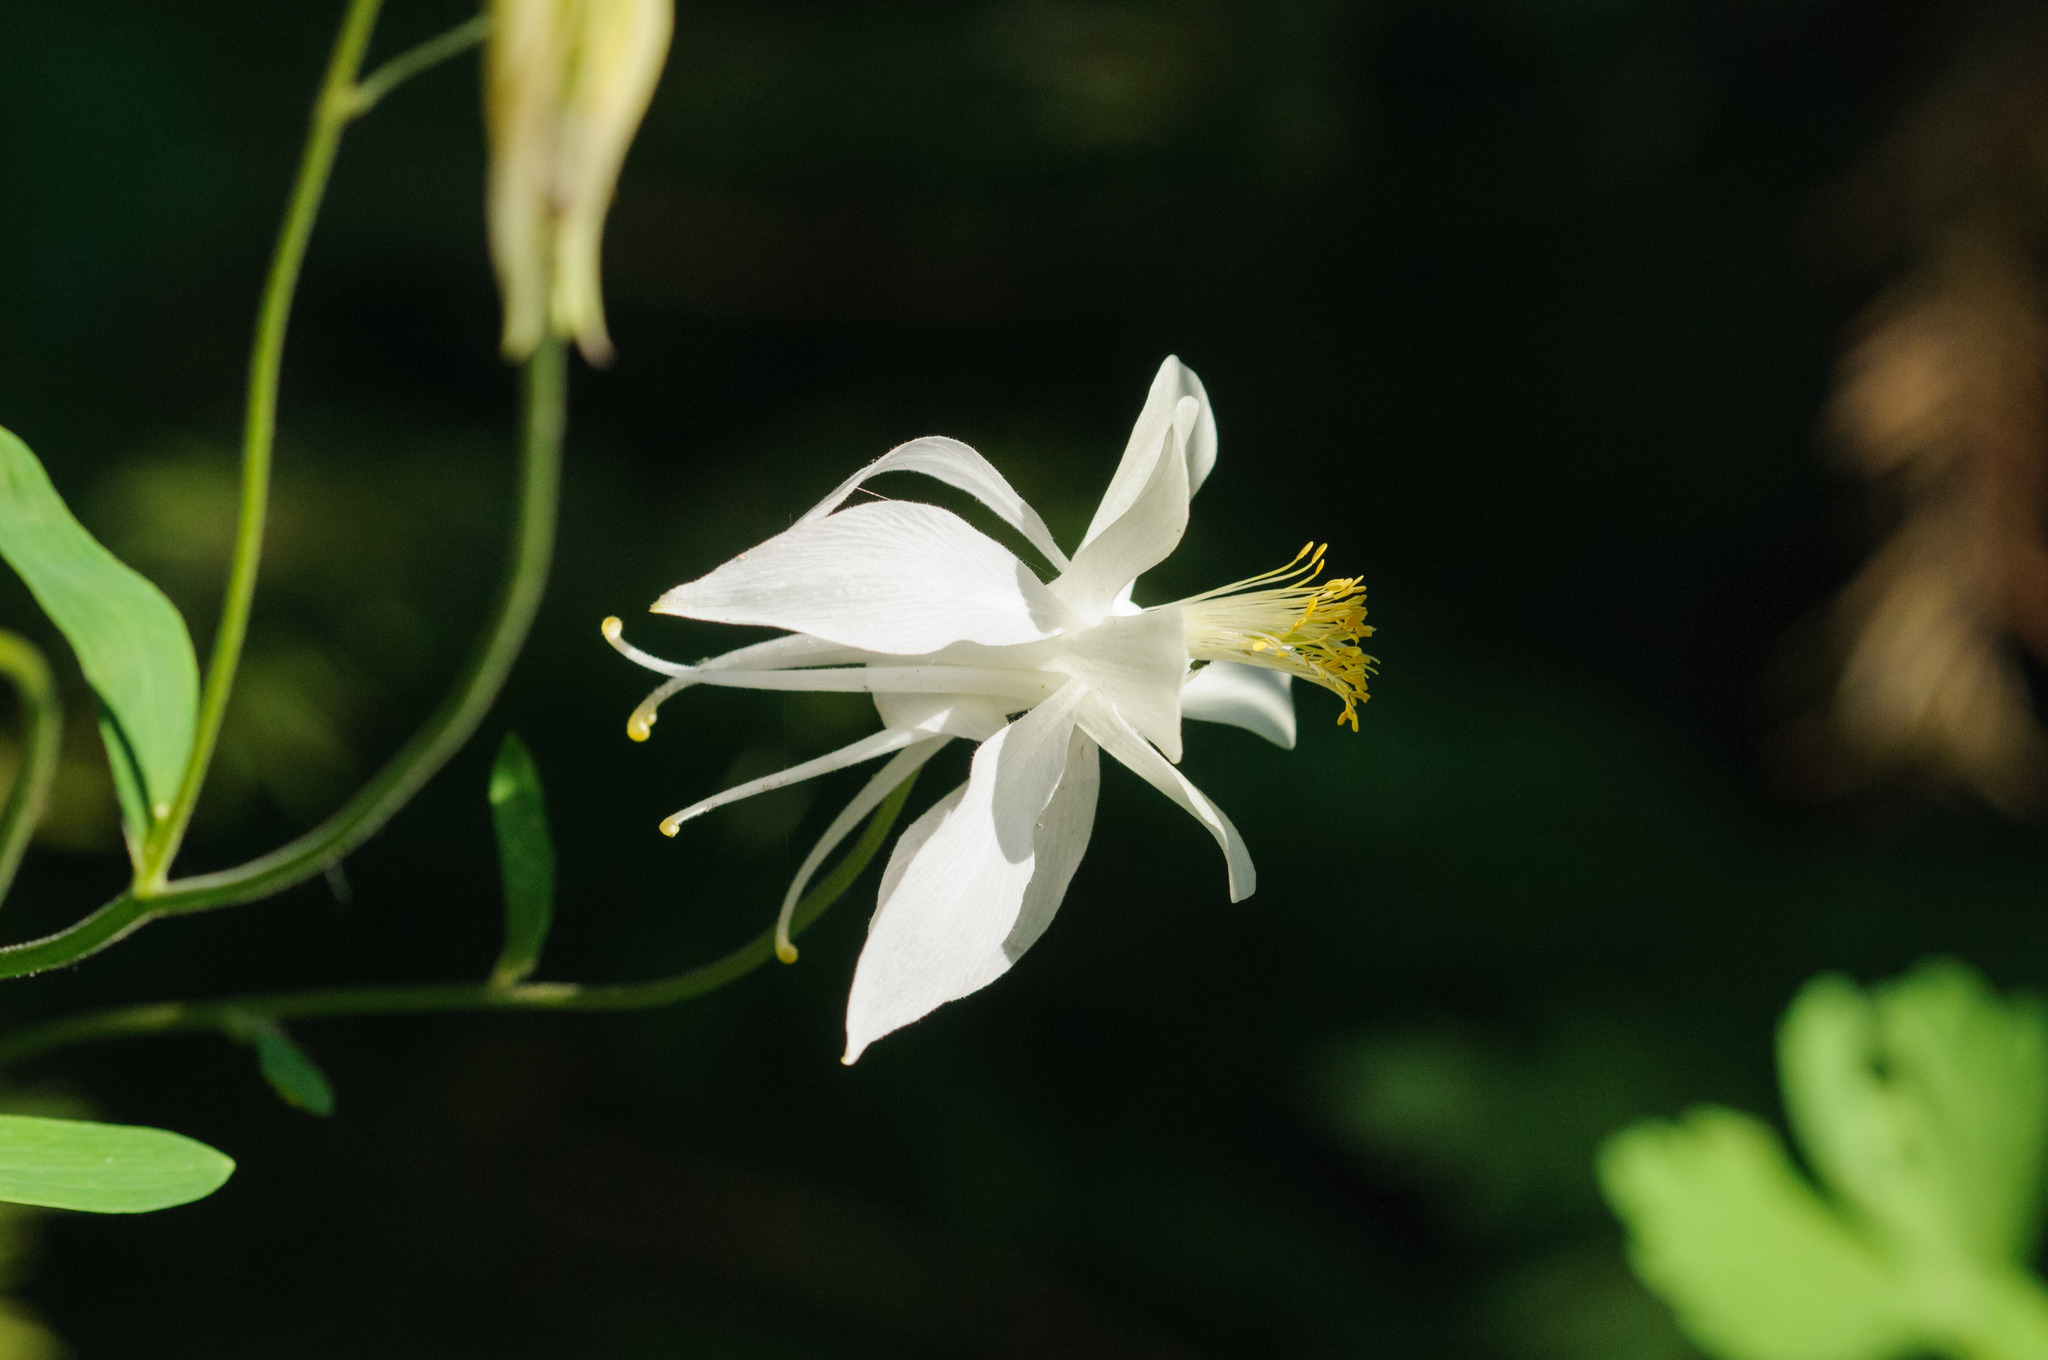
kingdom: Plantae
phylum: Tracheophyta
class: Magnoliopsida
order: Ranunculales
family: Ranunculaceae
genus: Aquilegia
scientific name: Aquilegia coerulea
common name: Rocky mountain columbine
